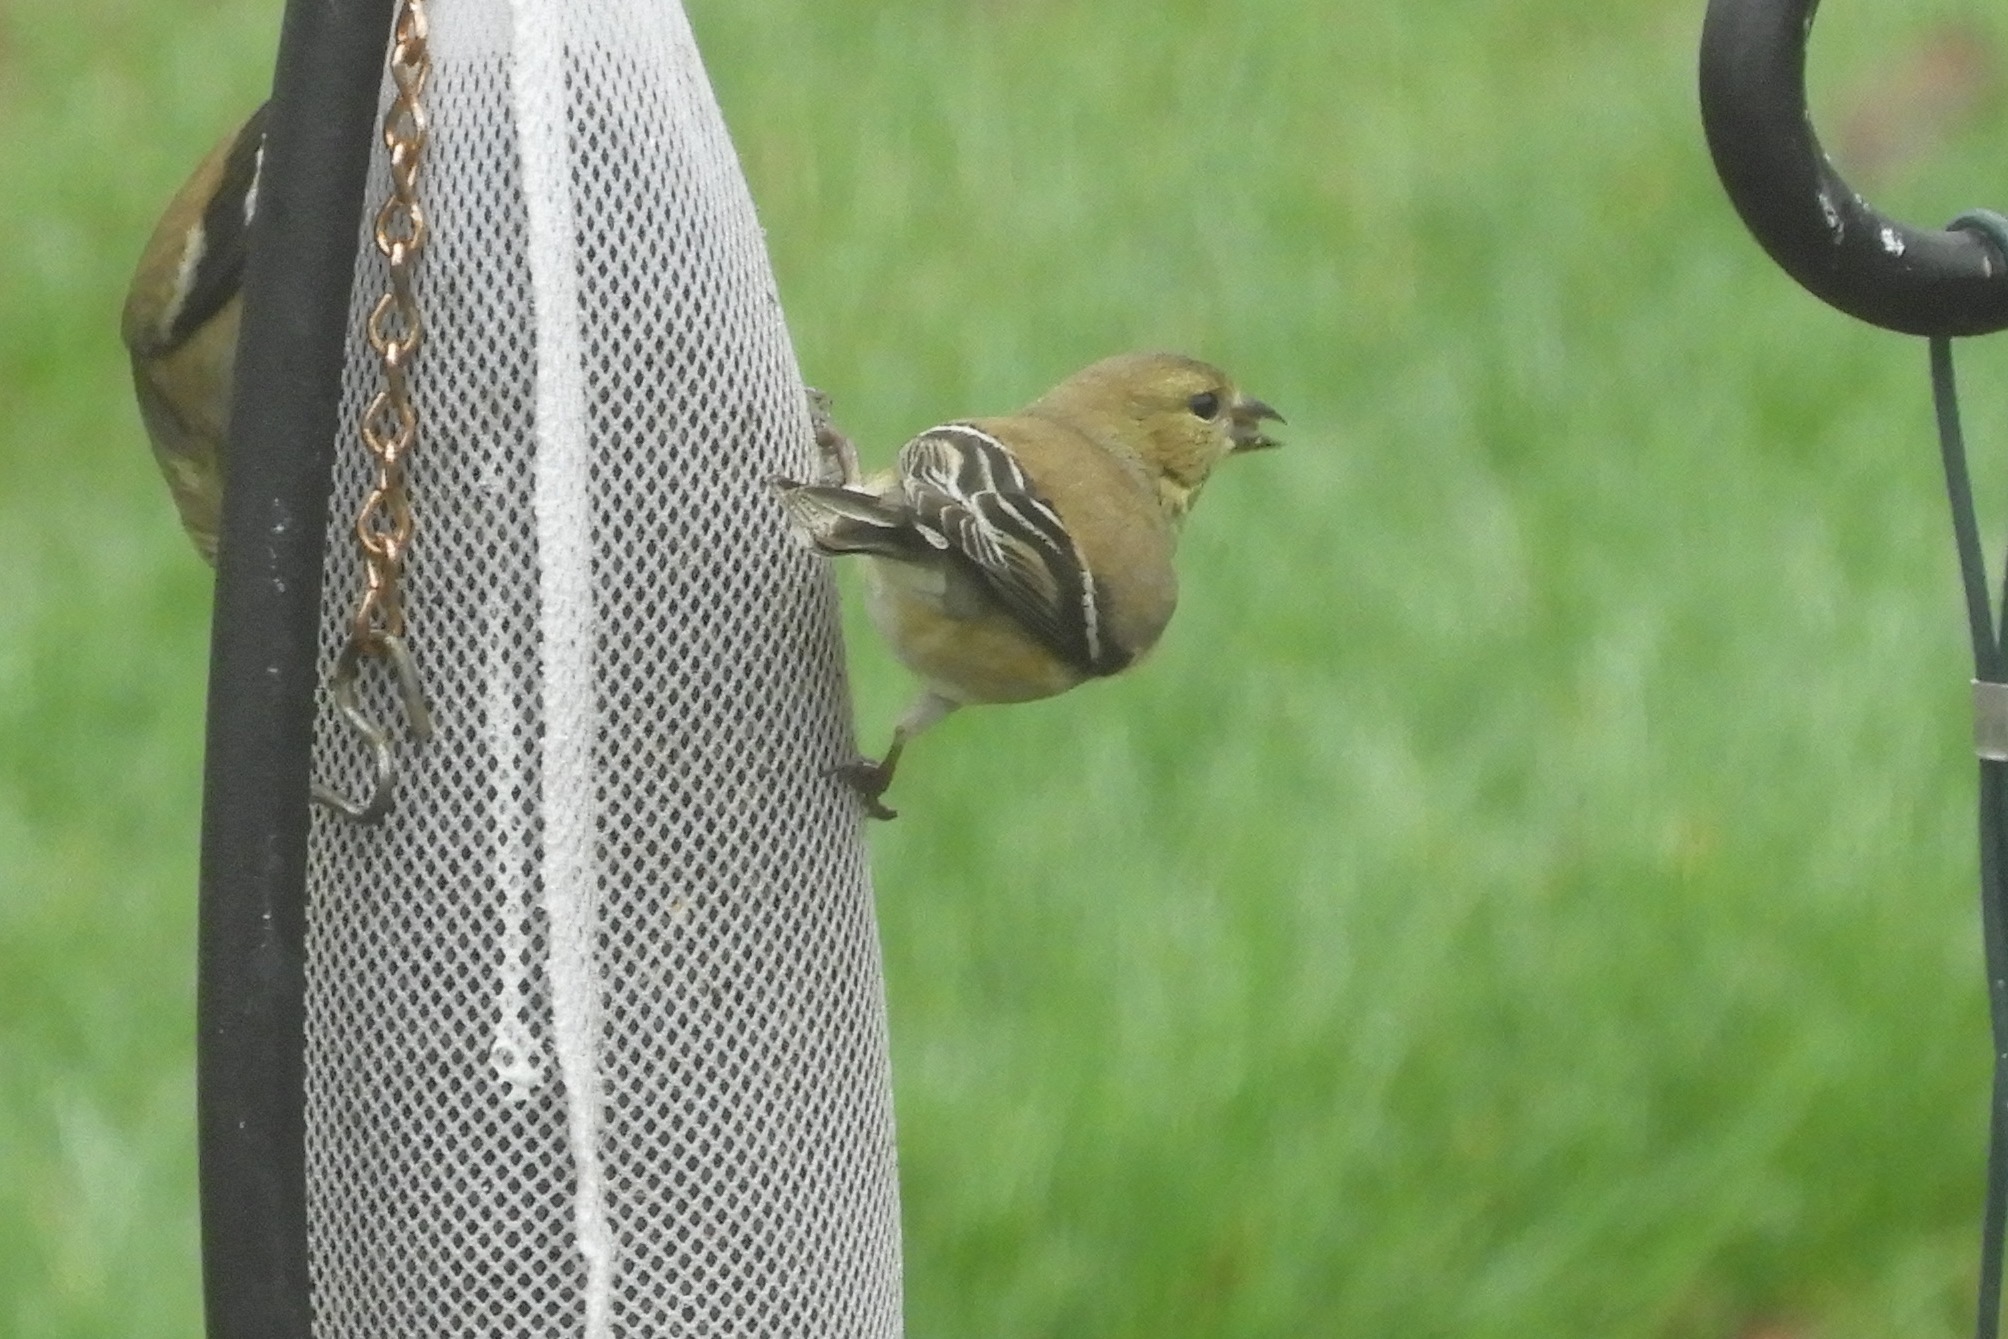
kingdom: Animalia
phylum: Chordata
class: Aves
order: Passeriformes
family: Fringillidae
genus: Spinus
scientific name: Spinus tristis
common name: American goldfinch
